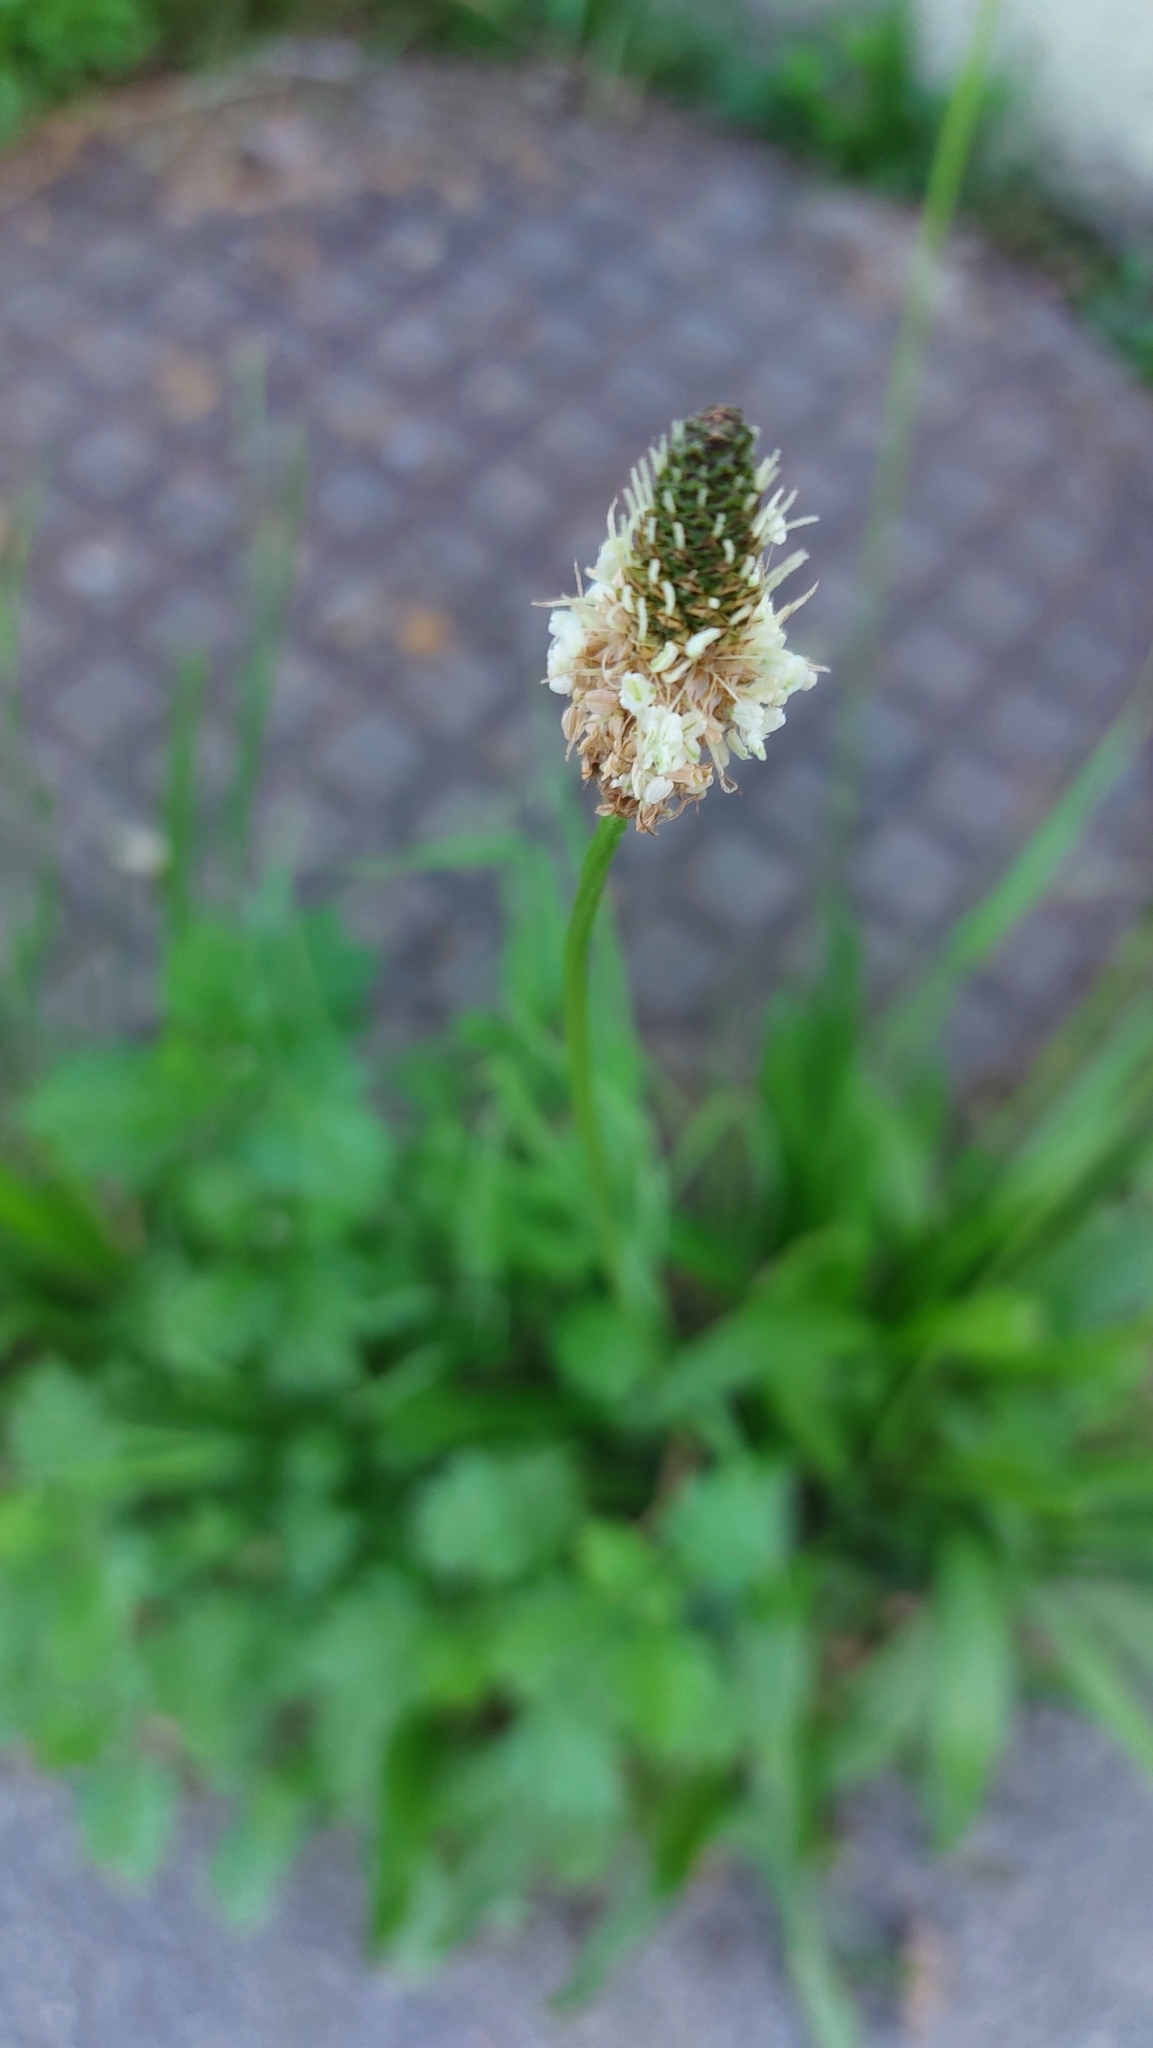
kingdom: Plantae
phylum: Tracheophyta
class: Magnoliopsida
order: Lamiales
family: Plantaginaceae
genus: Plantago
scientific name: Plantago lanceolata
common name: Ribwort plantain
